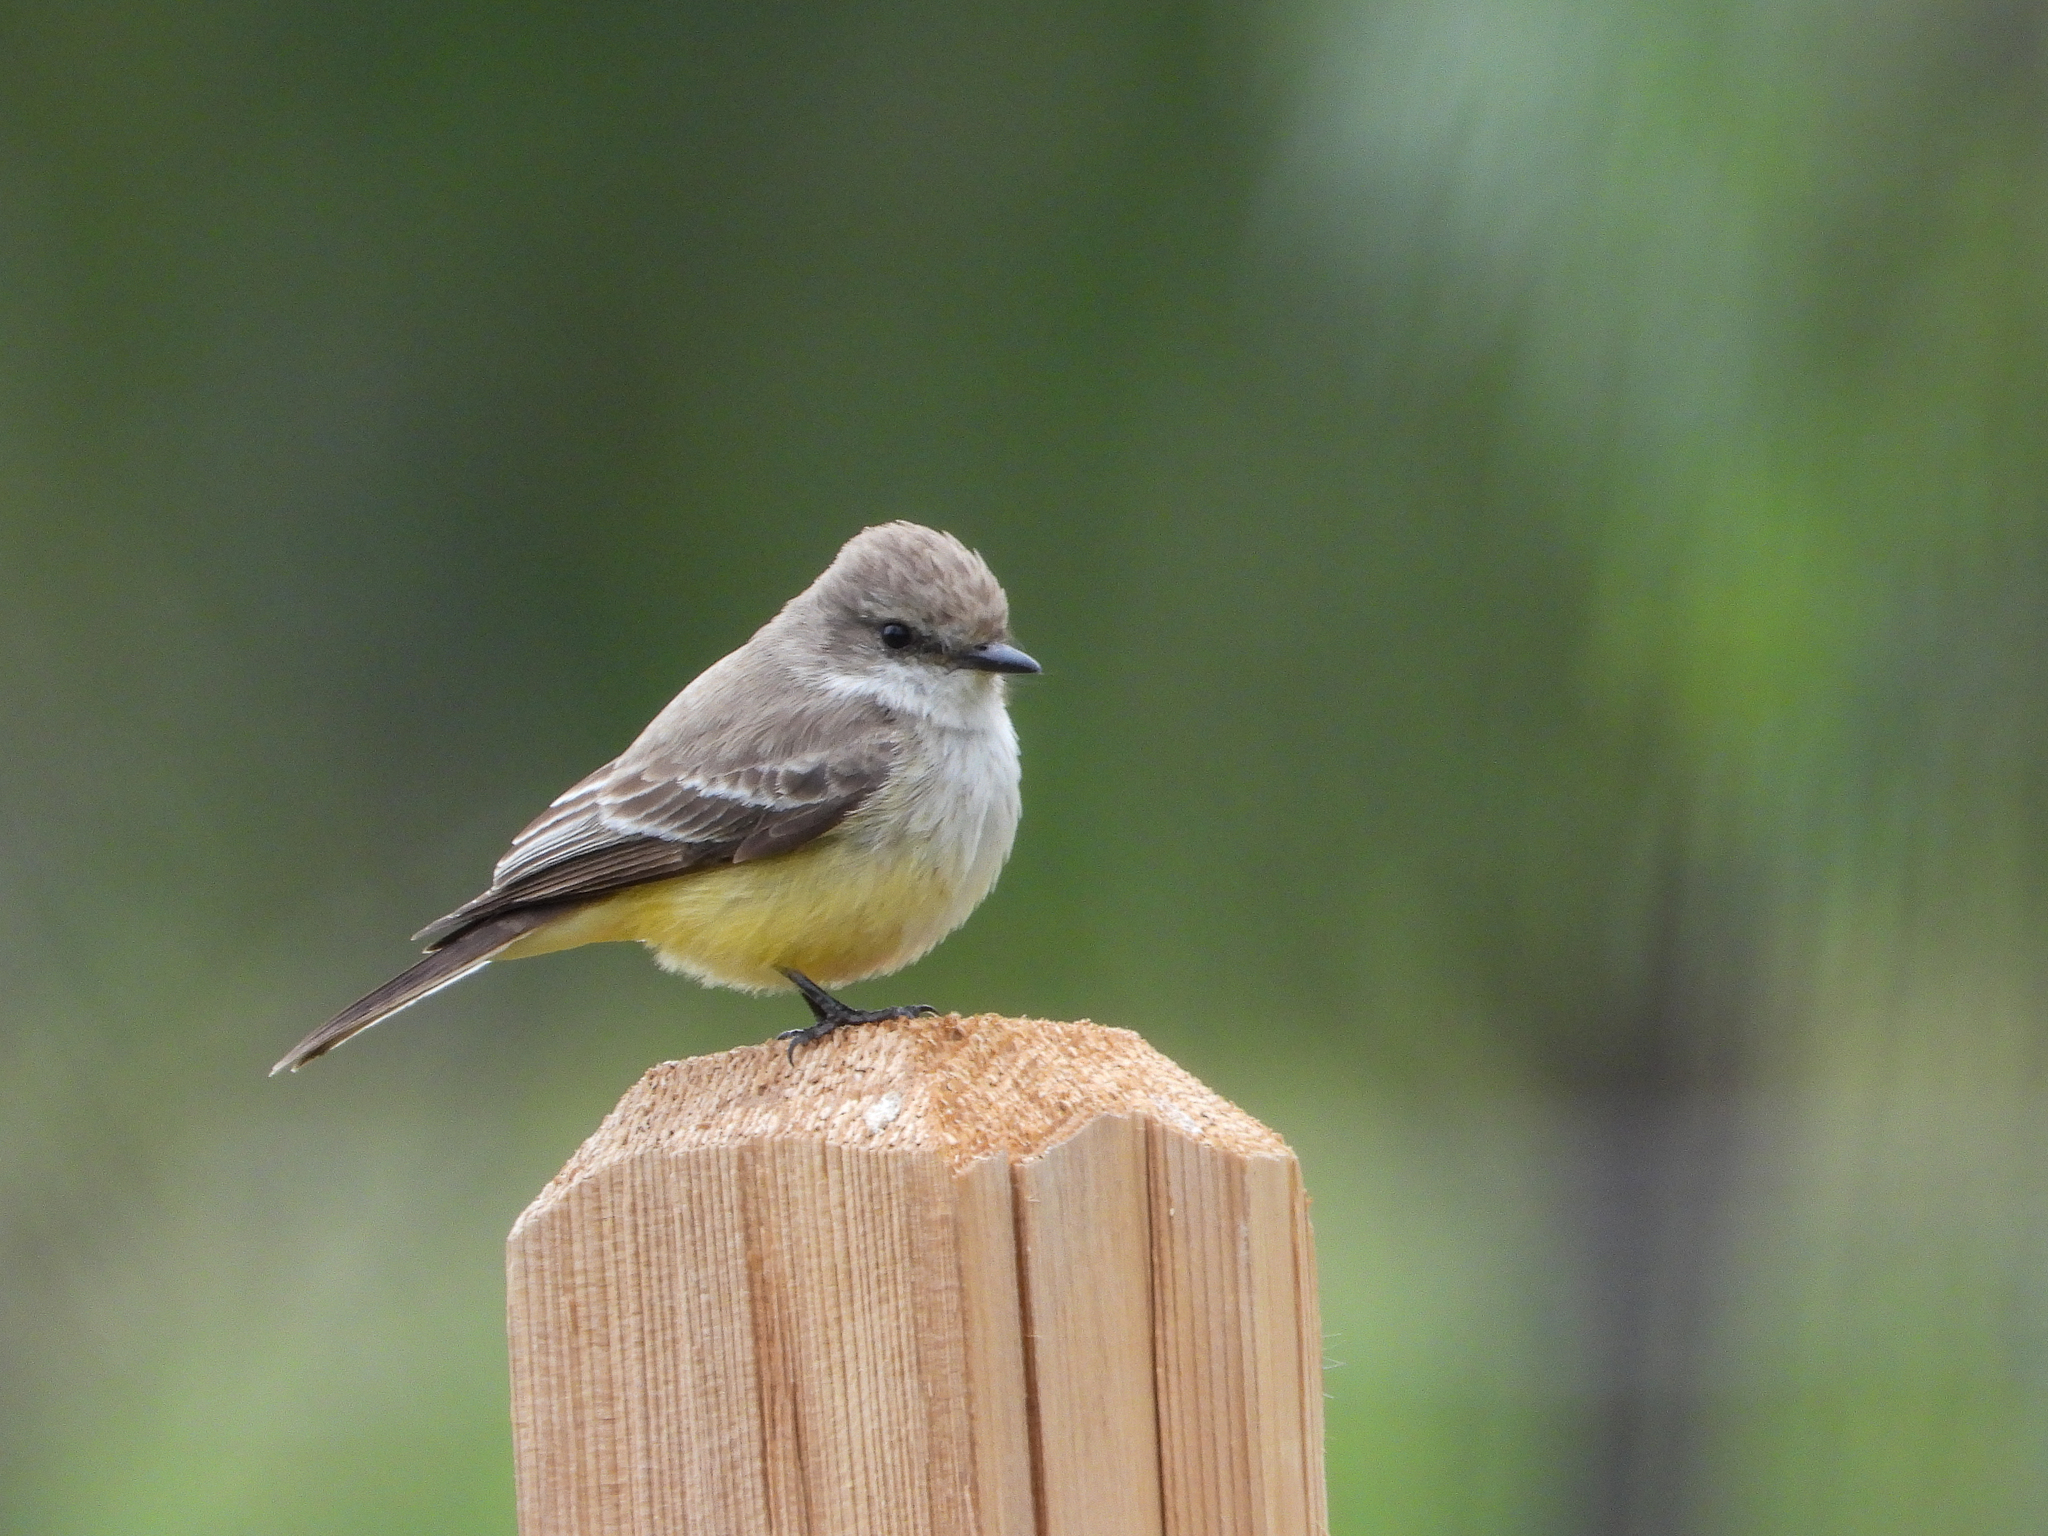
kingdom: Animalia
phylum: Chordata
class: Aves
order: Passeriformes
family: Tyrannidae
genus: Pyrocephalus
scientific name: Pyrocephalus rubinus
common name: Vermilion flycatcher
